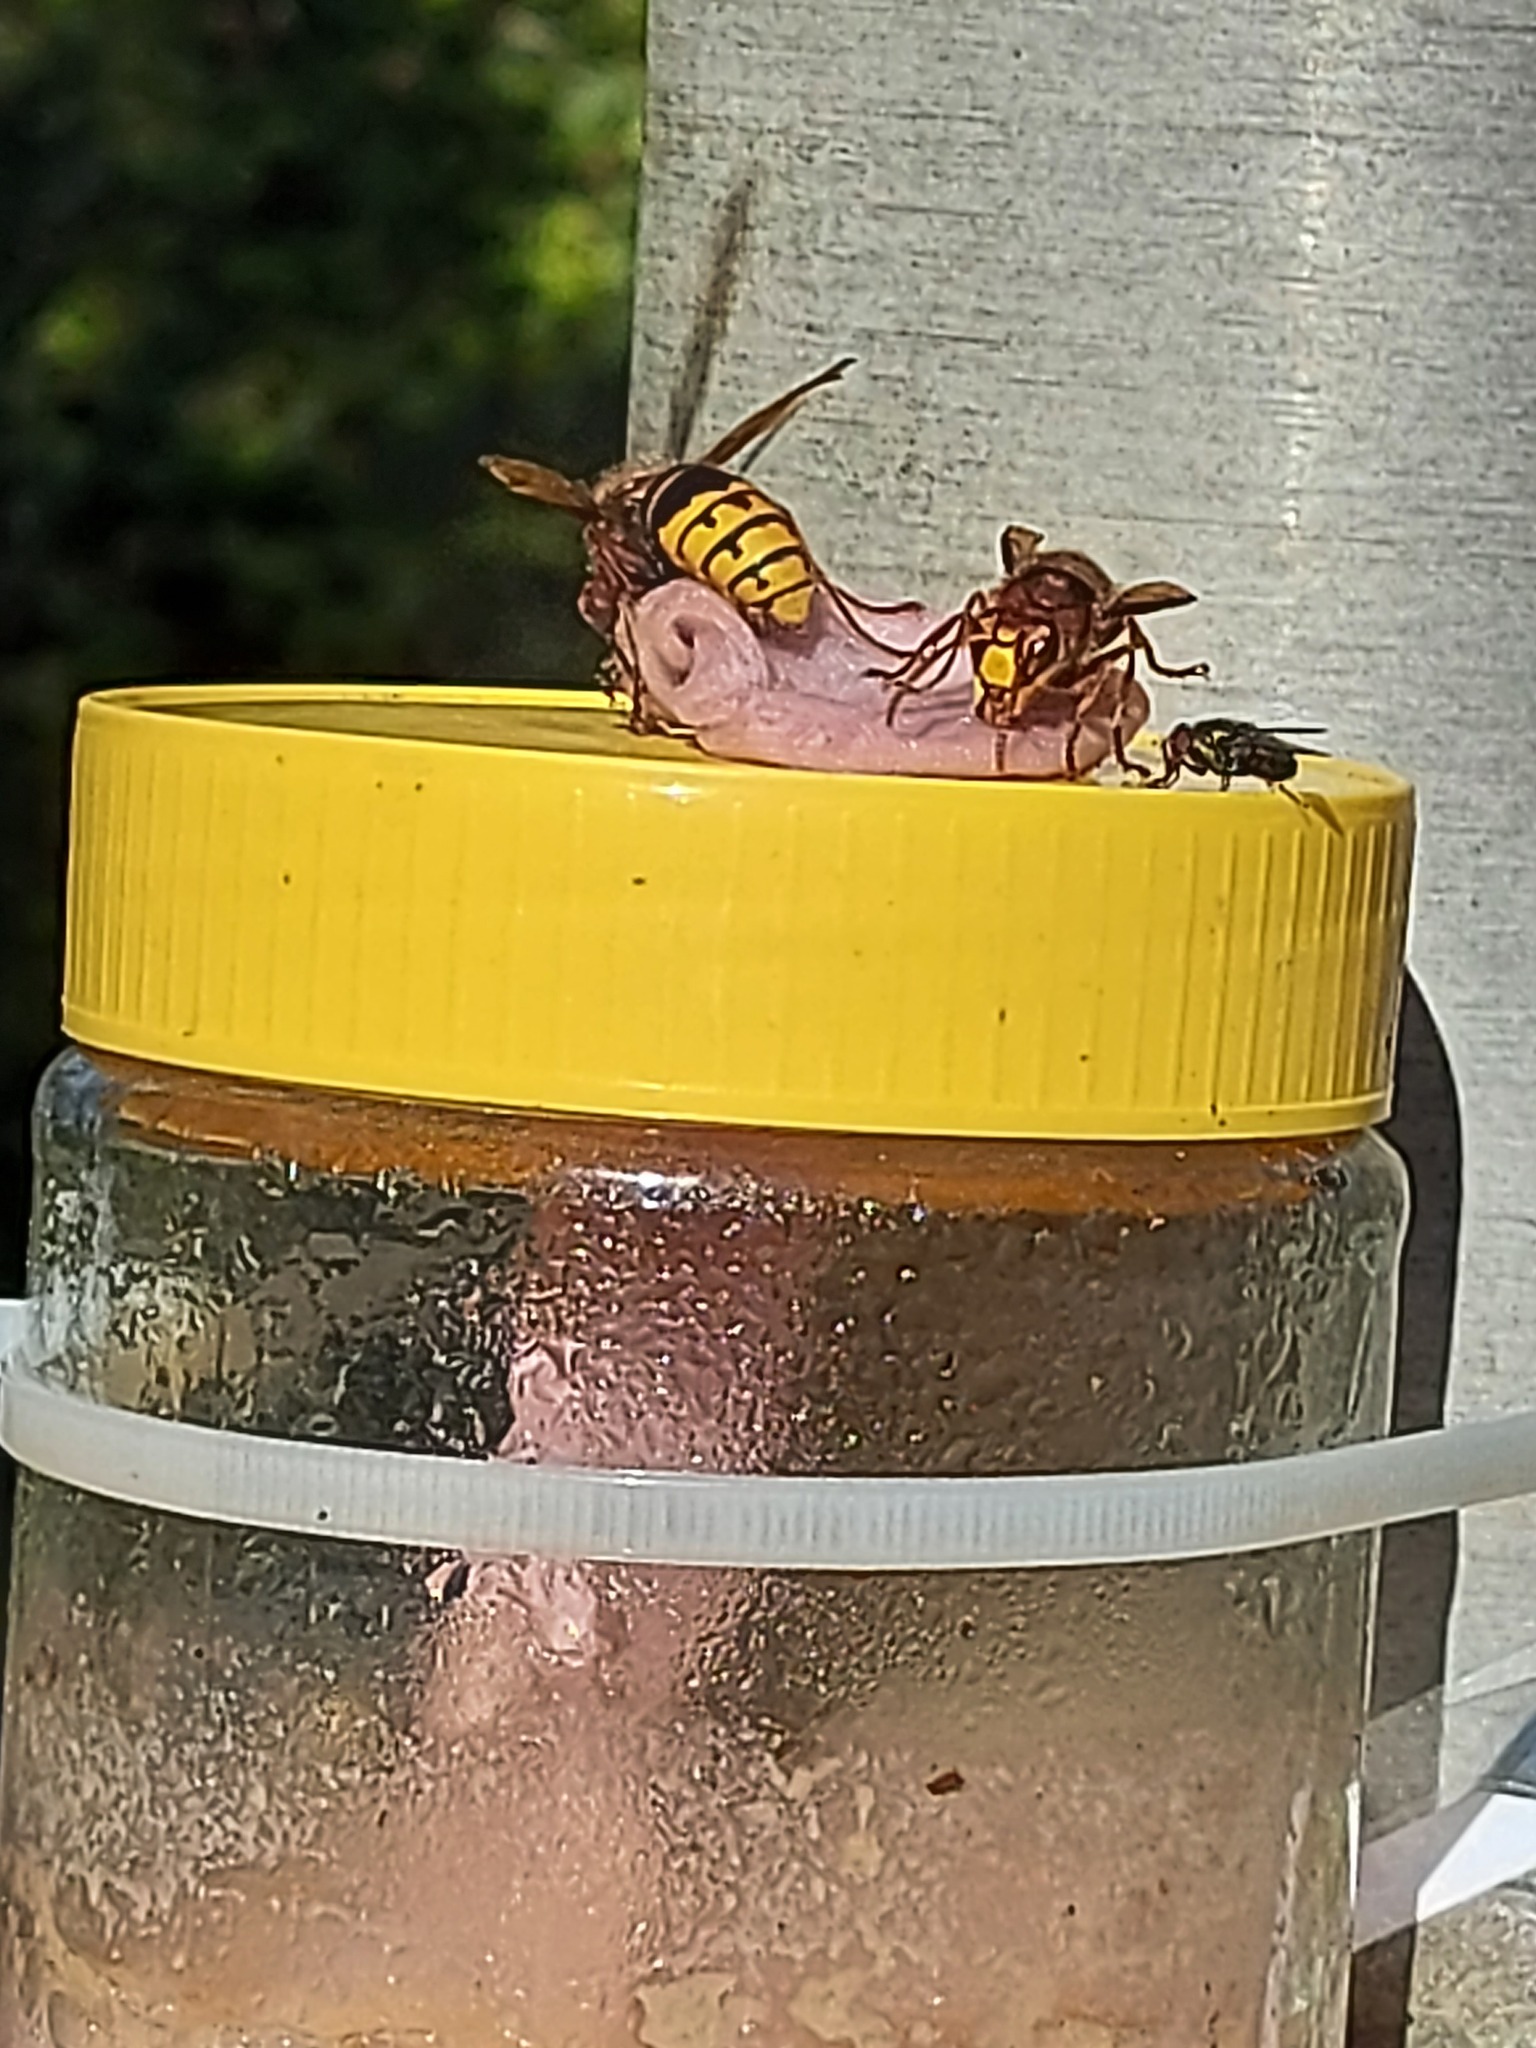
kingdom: Animalia
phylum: Arthropoda
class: Insecta
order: Hymenoptera
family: Vespidae
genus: Vespa
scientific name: Vespa crabro
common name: Hornet
